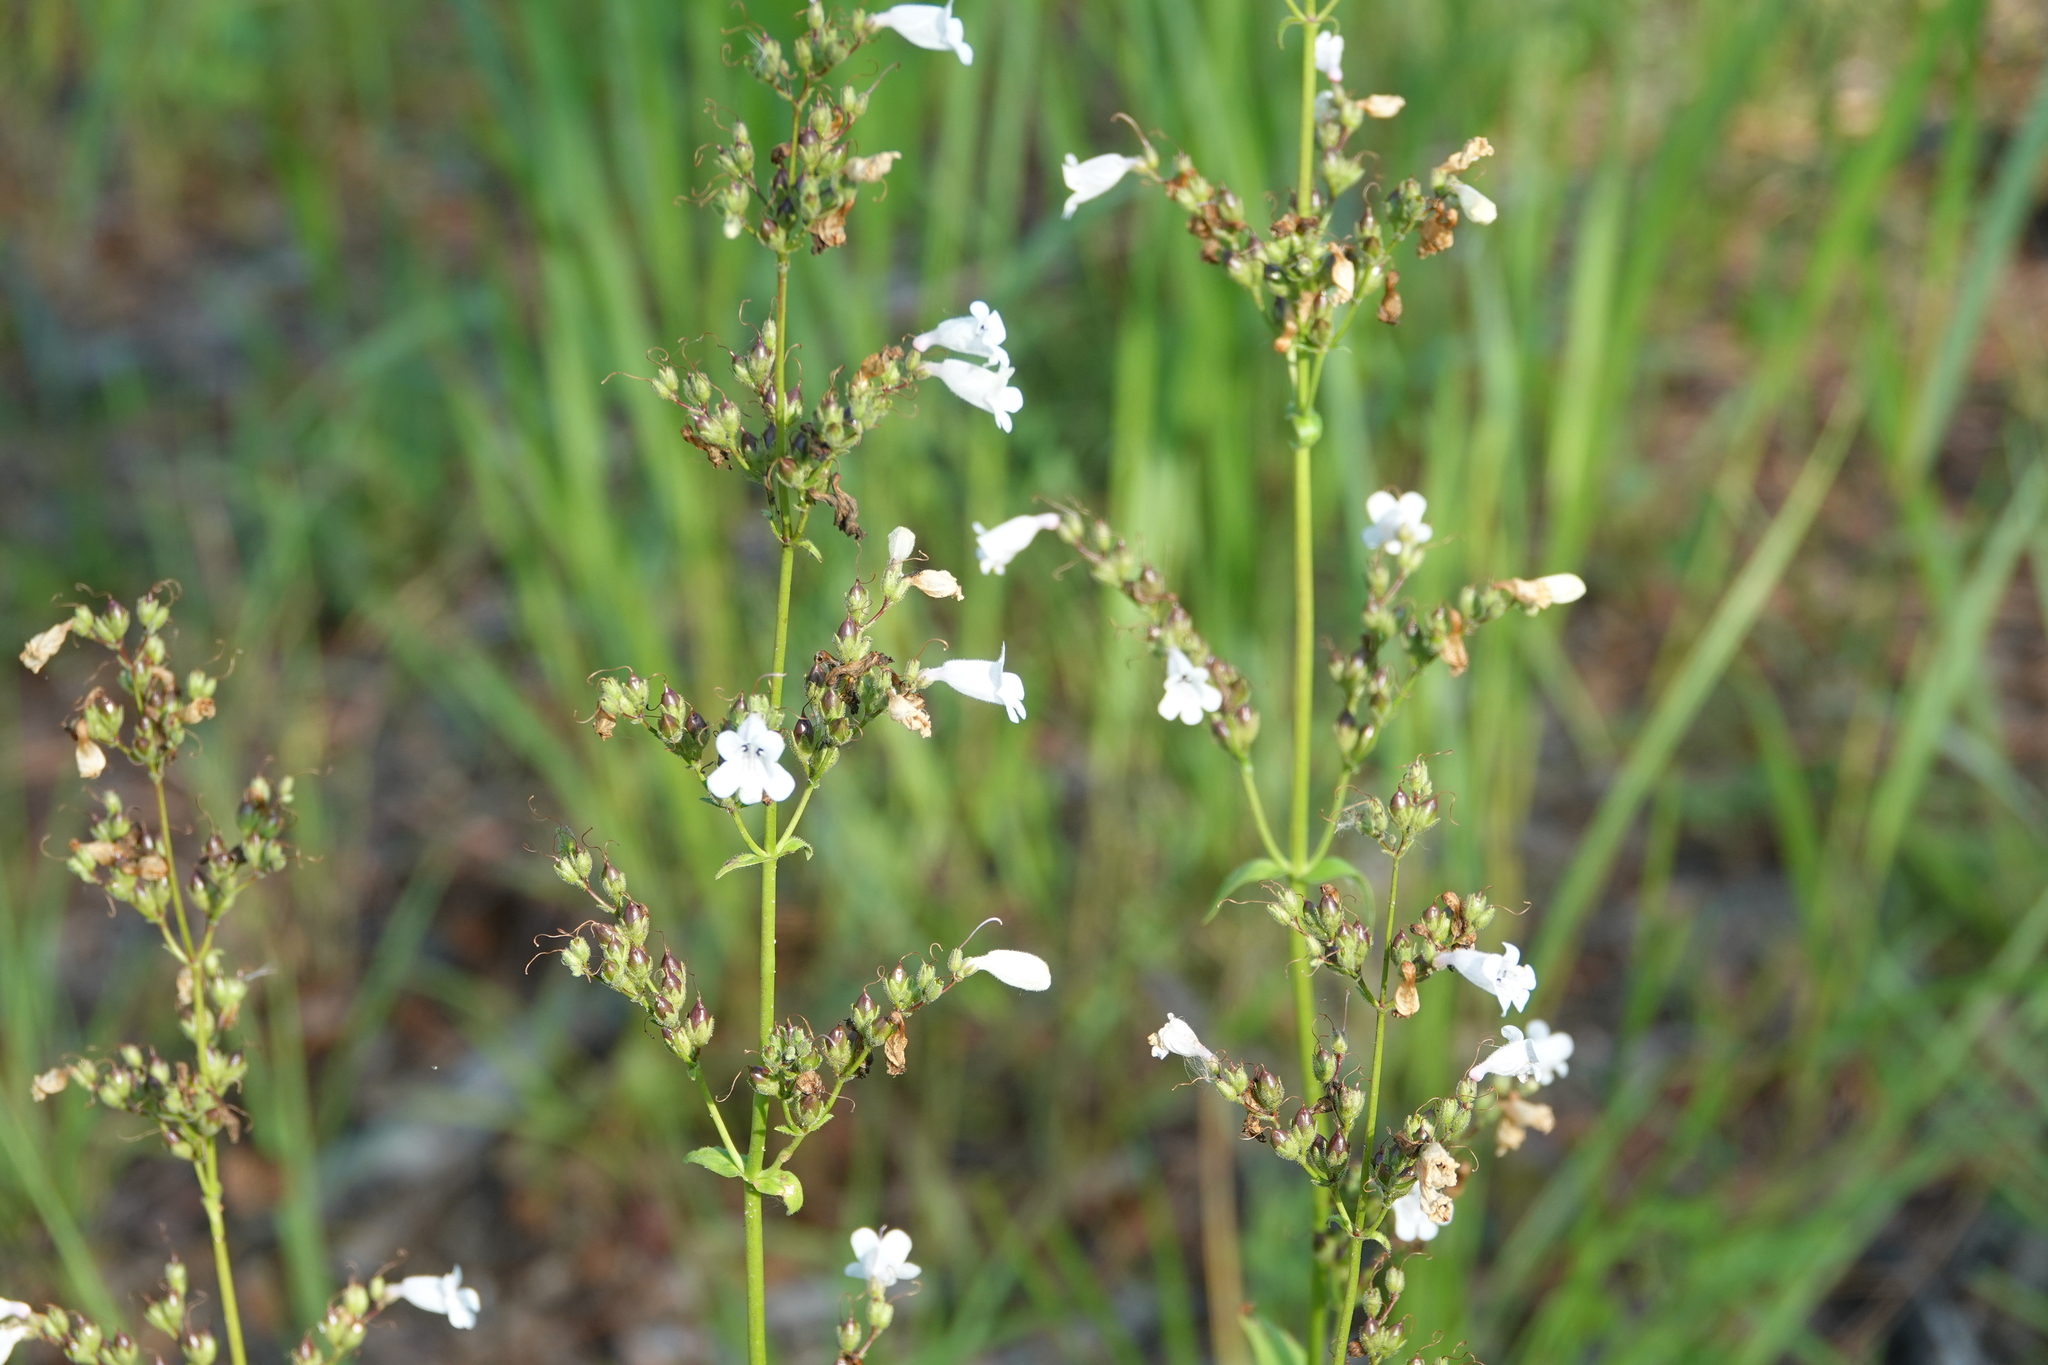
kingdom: Plantae
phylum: Tracheophyta
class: Magnoliopsida
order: Lamiales
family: Plantaginaceae
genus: Penstemon
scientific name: Penstemon multiflorus
